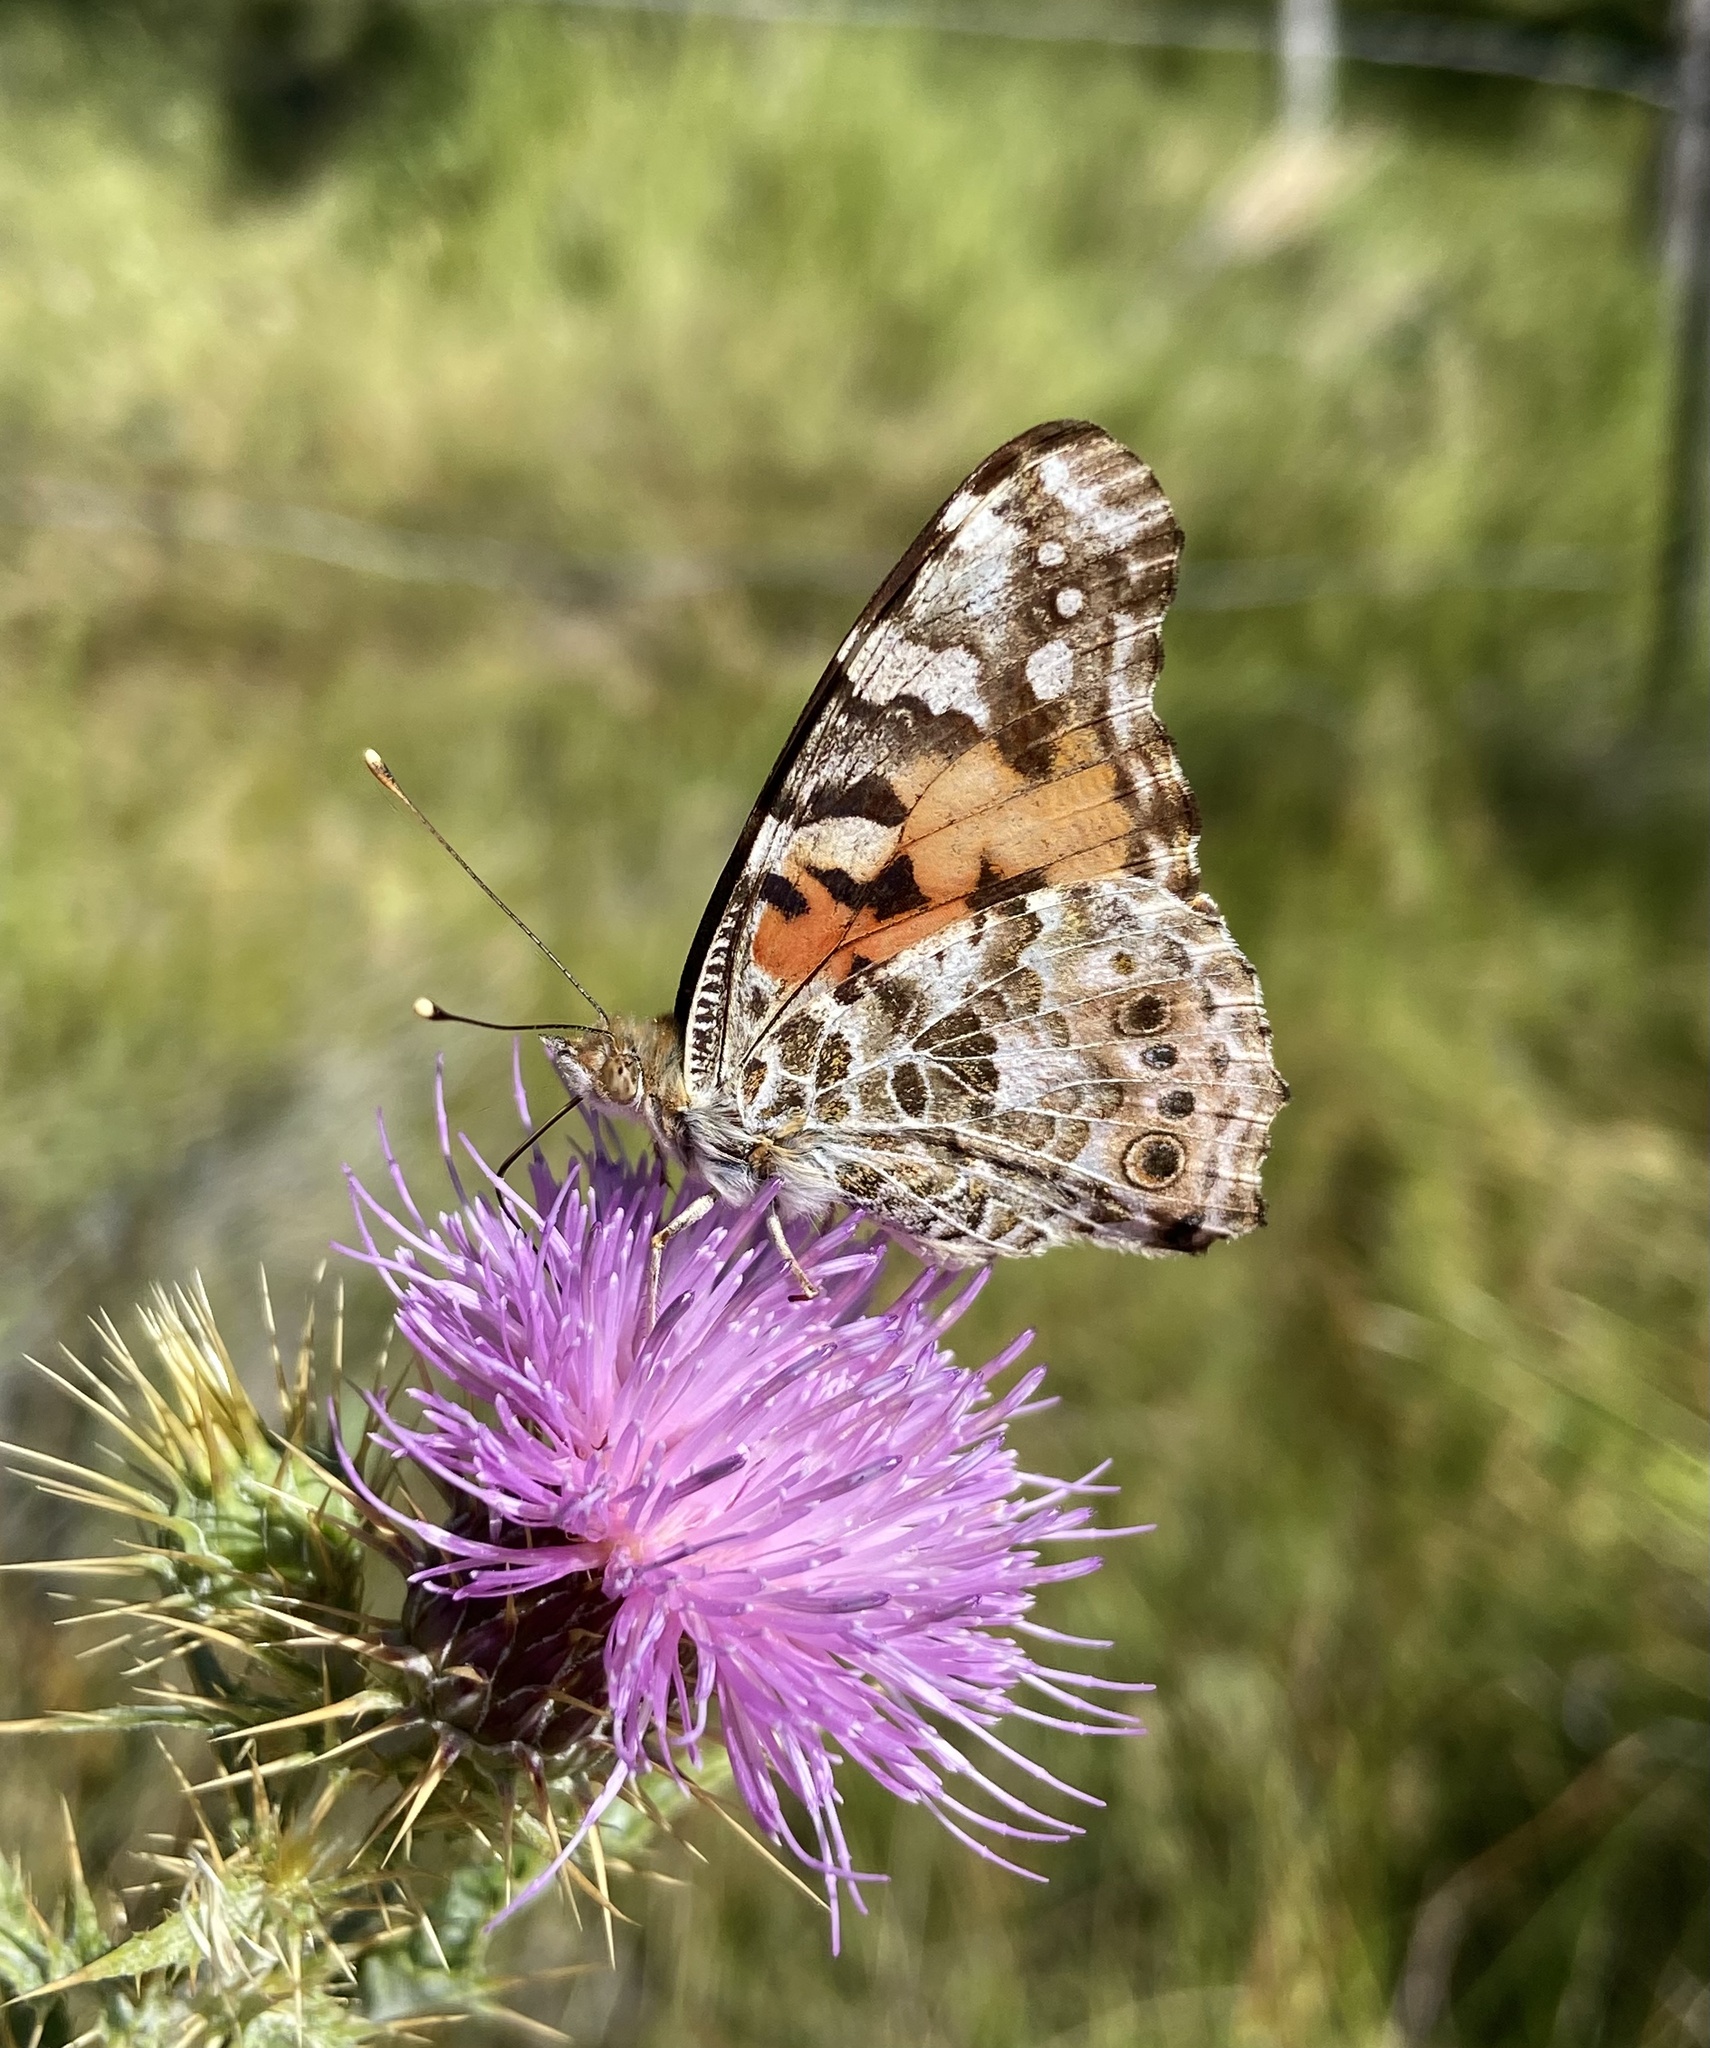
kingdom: Animalia
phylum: Arthropoda
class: Insecta
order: Lepidoptera
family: Nymphalidae
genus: Vanessa
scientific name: Vanessa cardui
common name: Painted lady
